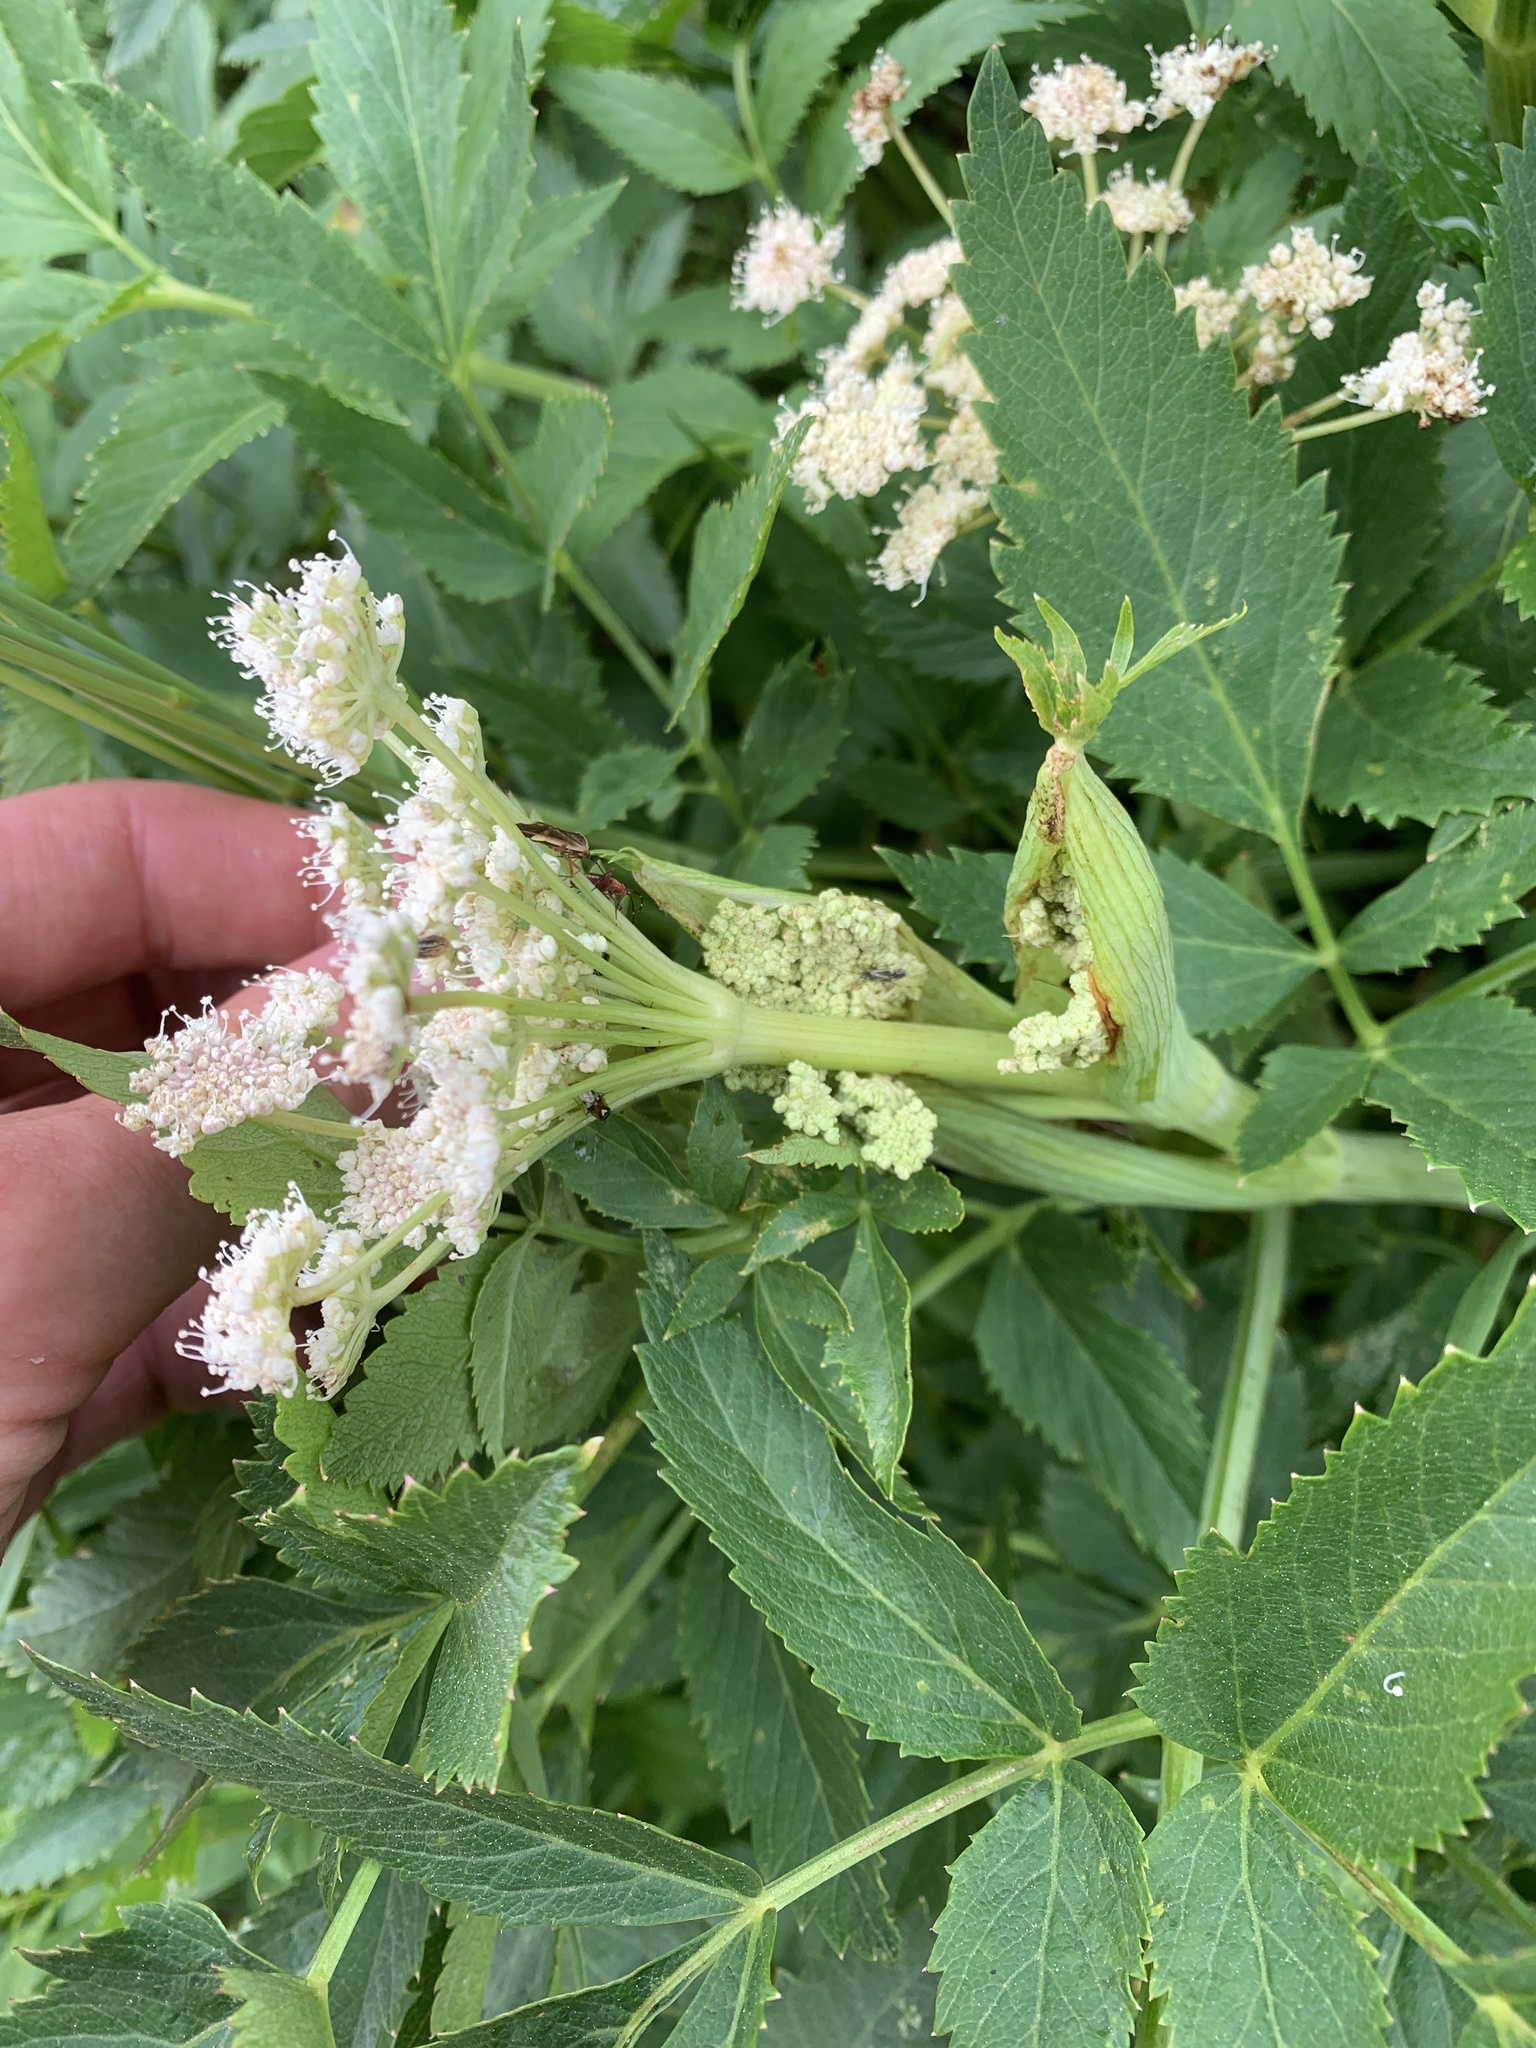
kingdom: Plantae
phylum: Tracheophyta
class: Magnoliopsida
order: Apiales
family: Apiaceae
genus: Angelica
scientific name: Angelica arguta
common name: Lyall's angelica
